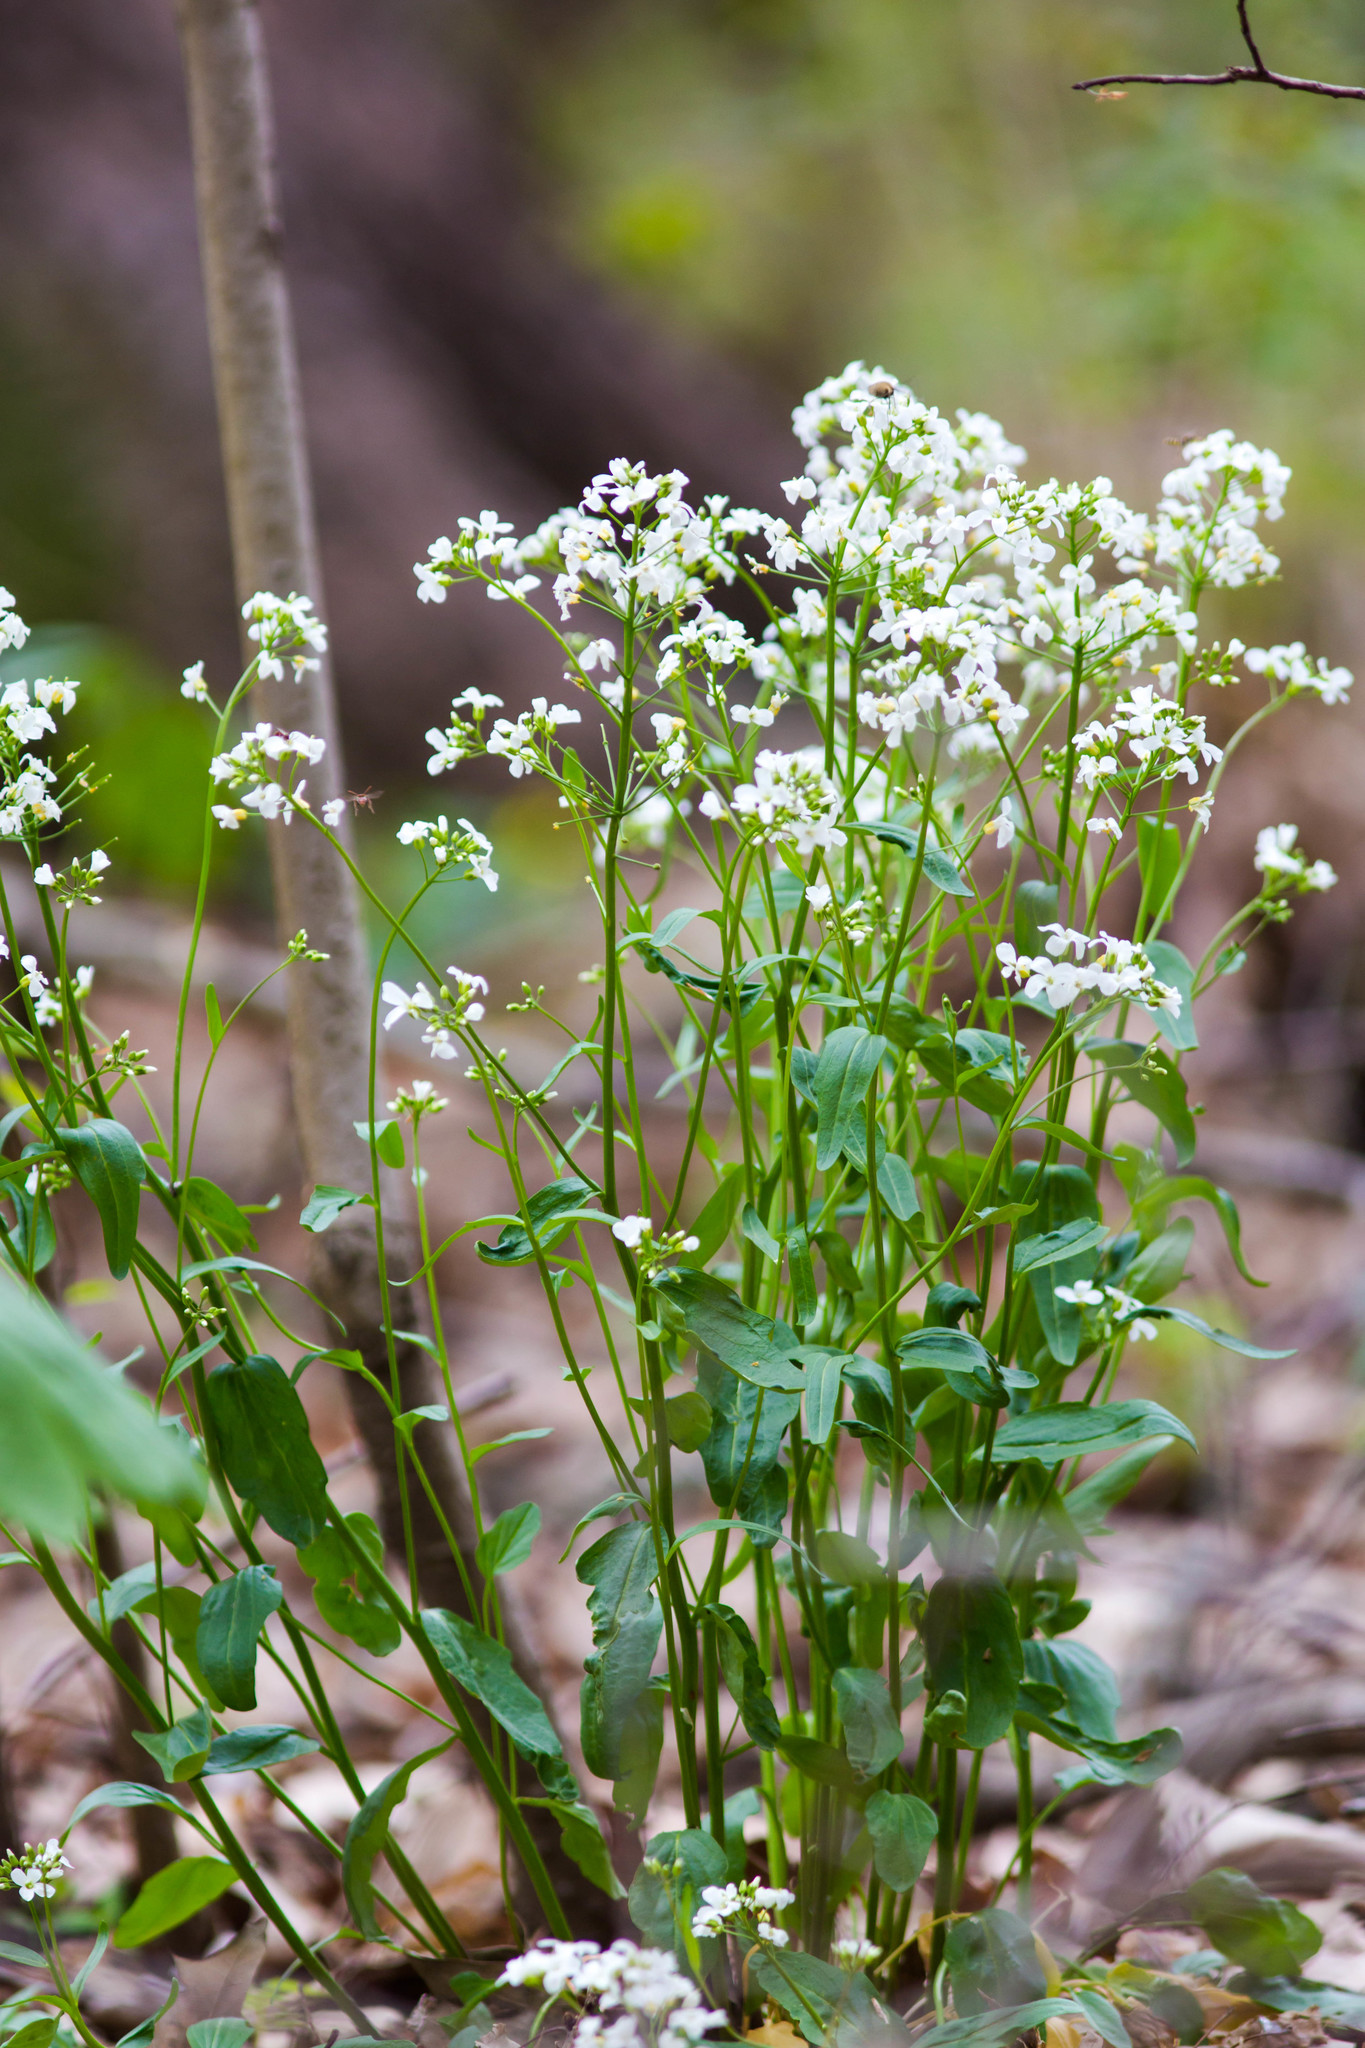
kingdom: Plantae
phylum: Tracheophyta
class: Magnoliopsida
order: Brassicales
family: Brassicaceae
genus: Cardamine
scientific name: Cardamine bulbosa
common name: Spring cress
